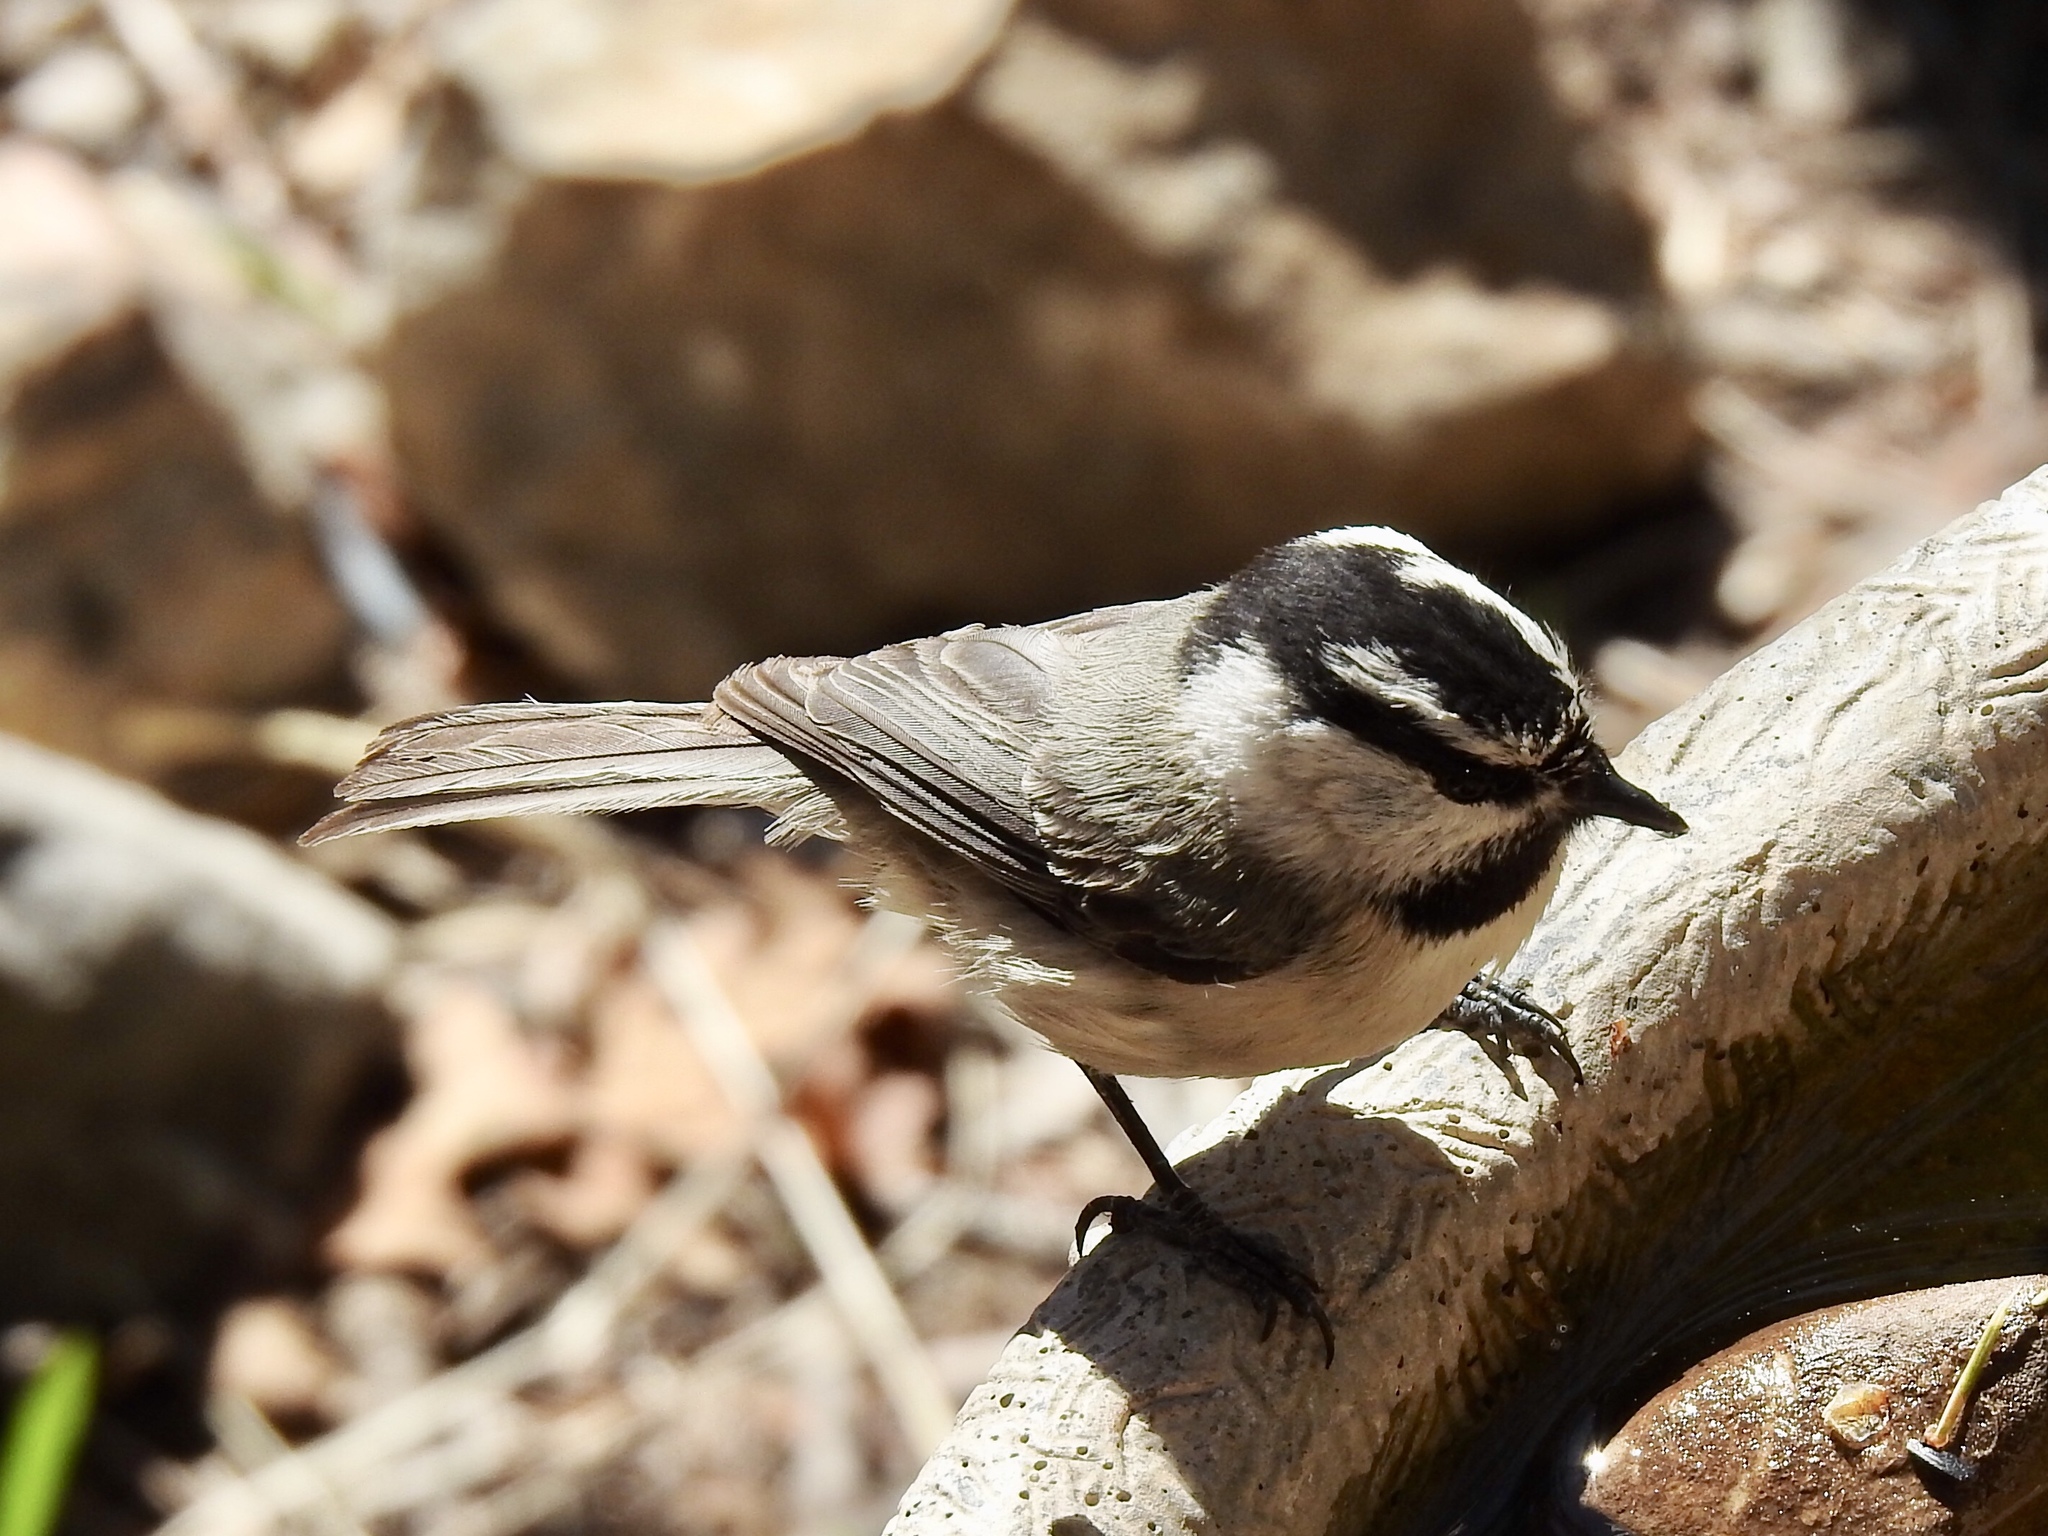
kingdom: Animalia
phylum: Chordata
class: Aves
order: Passeriformes
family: Paridae
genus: Poecile
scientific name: Poecile gambeli
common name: Mountain chickadee
